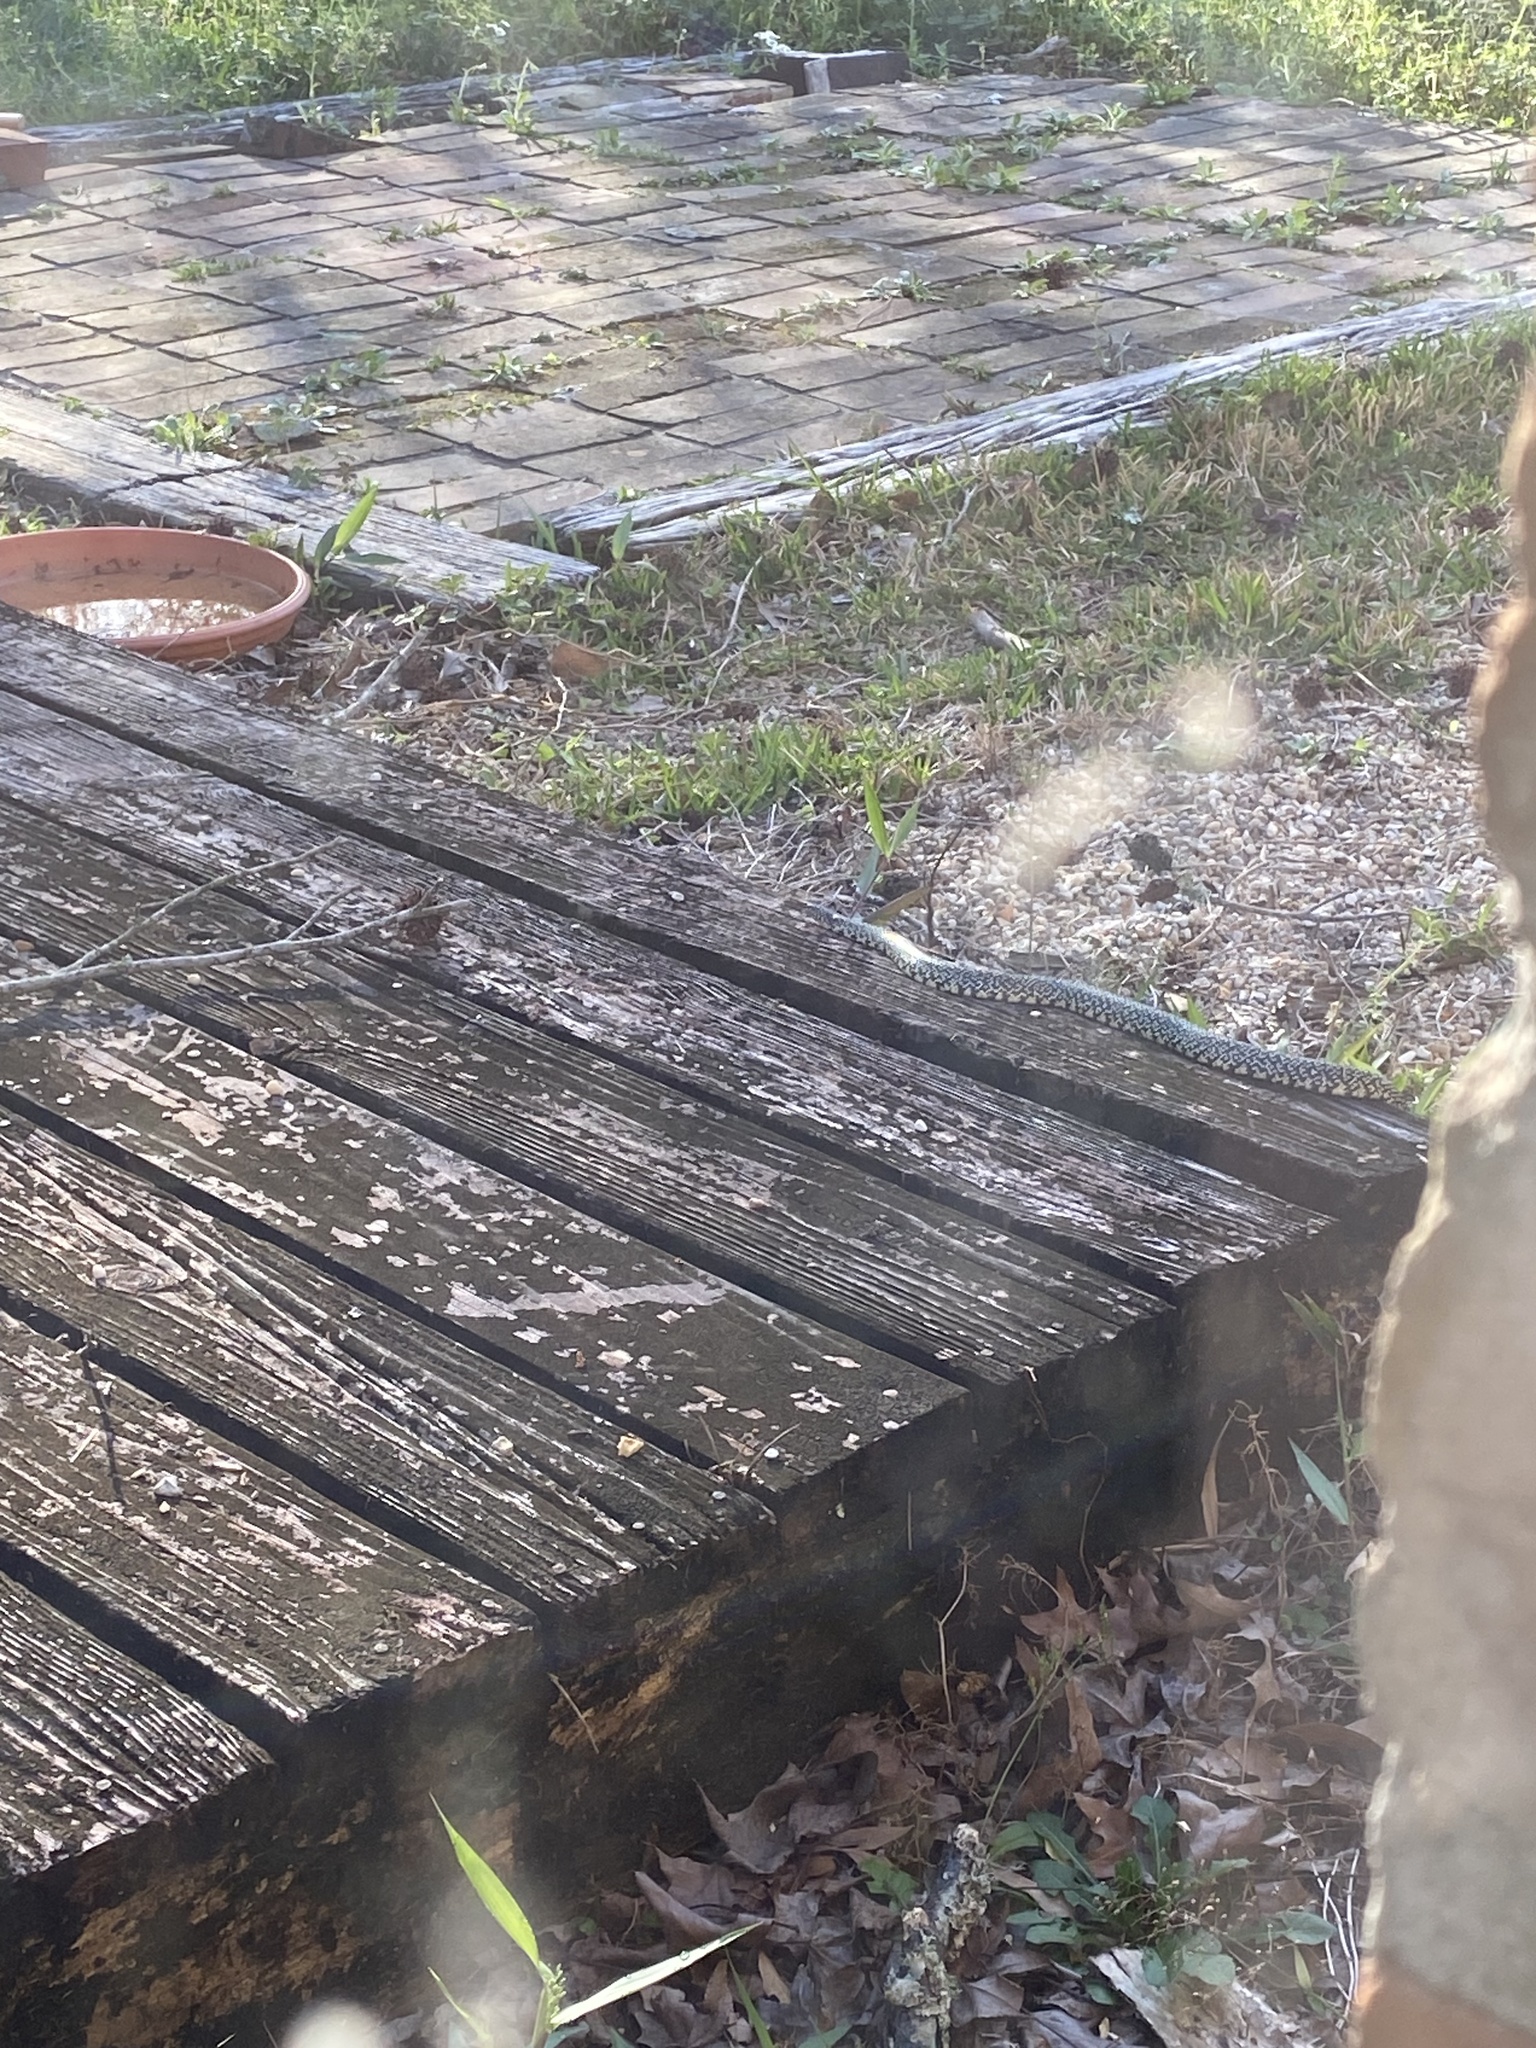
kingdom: Animalia
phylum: Chordata
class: Squamata
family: Colubridae
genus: Lampropeltis
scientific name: Lampropeltis holbrooki
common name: Speckled kingsnake
